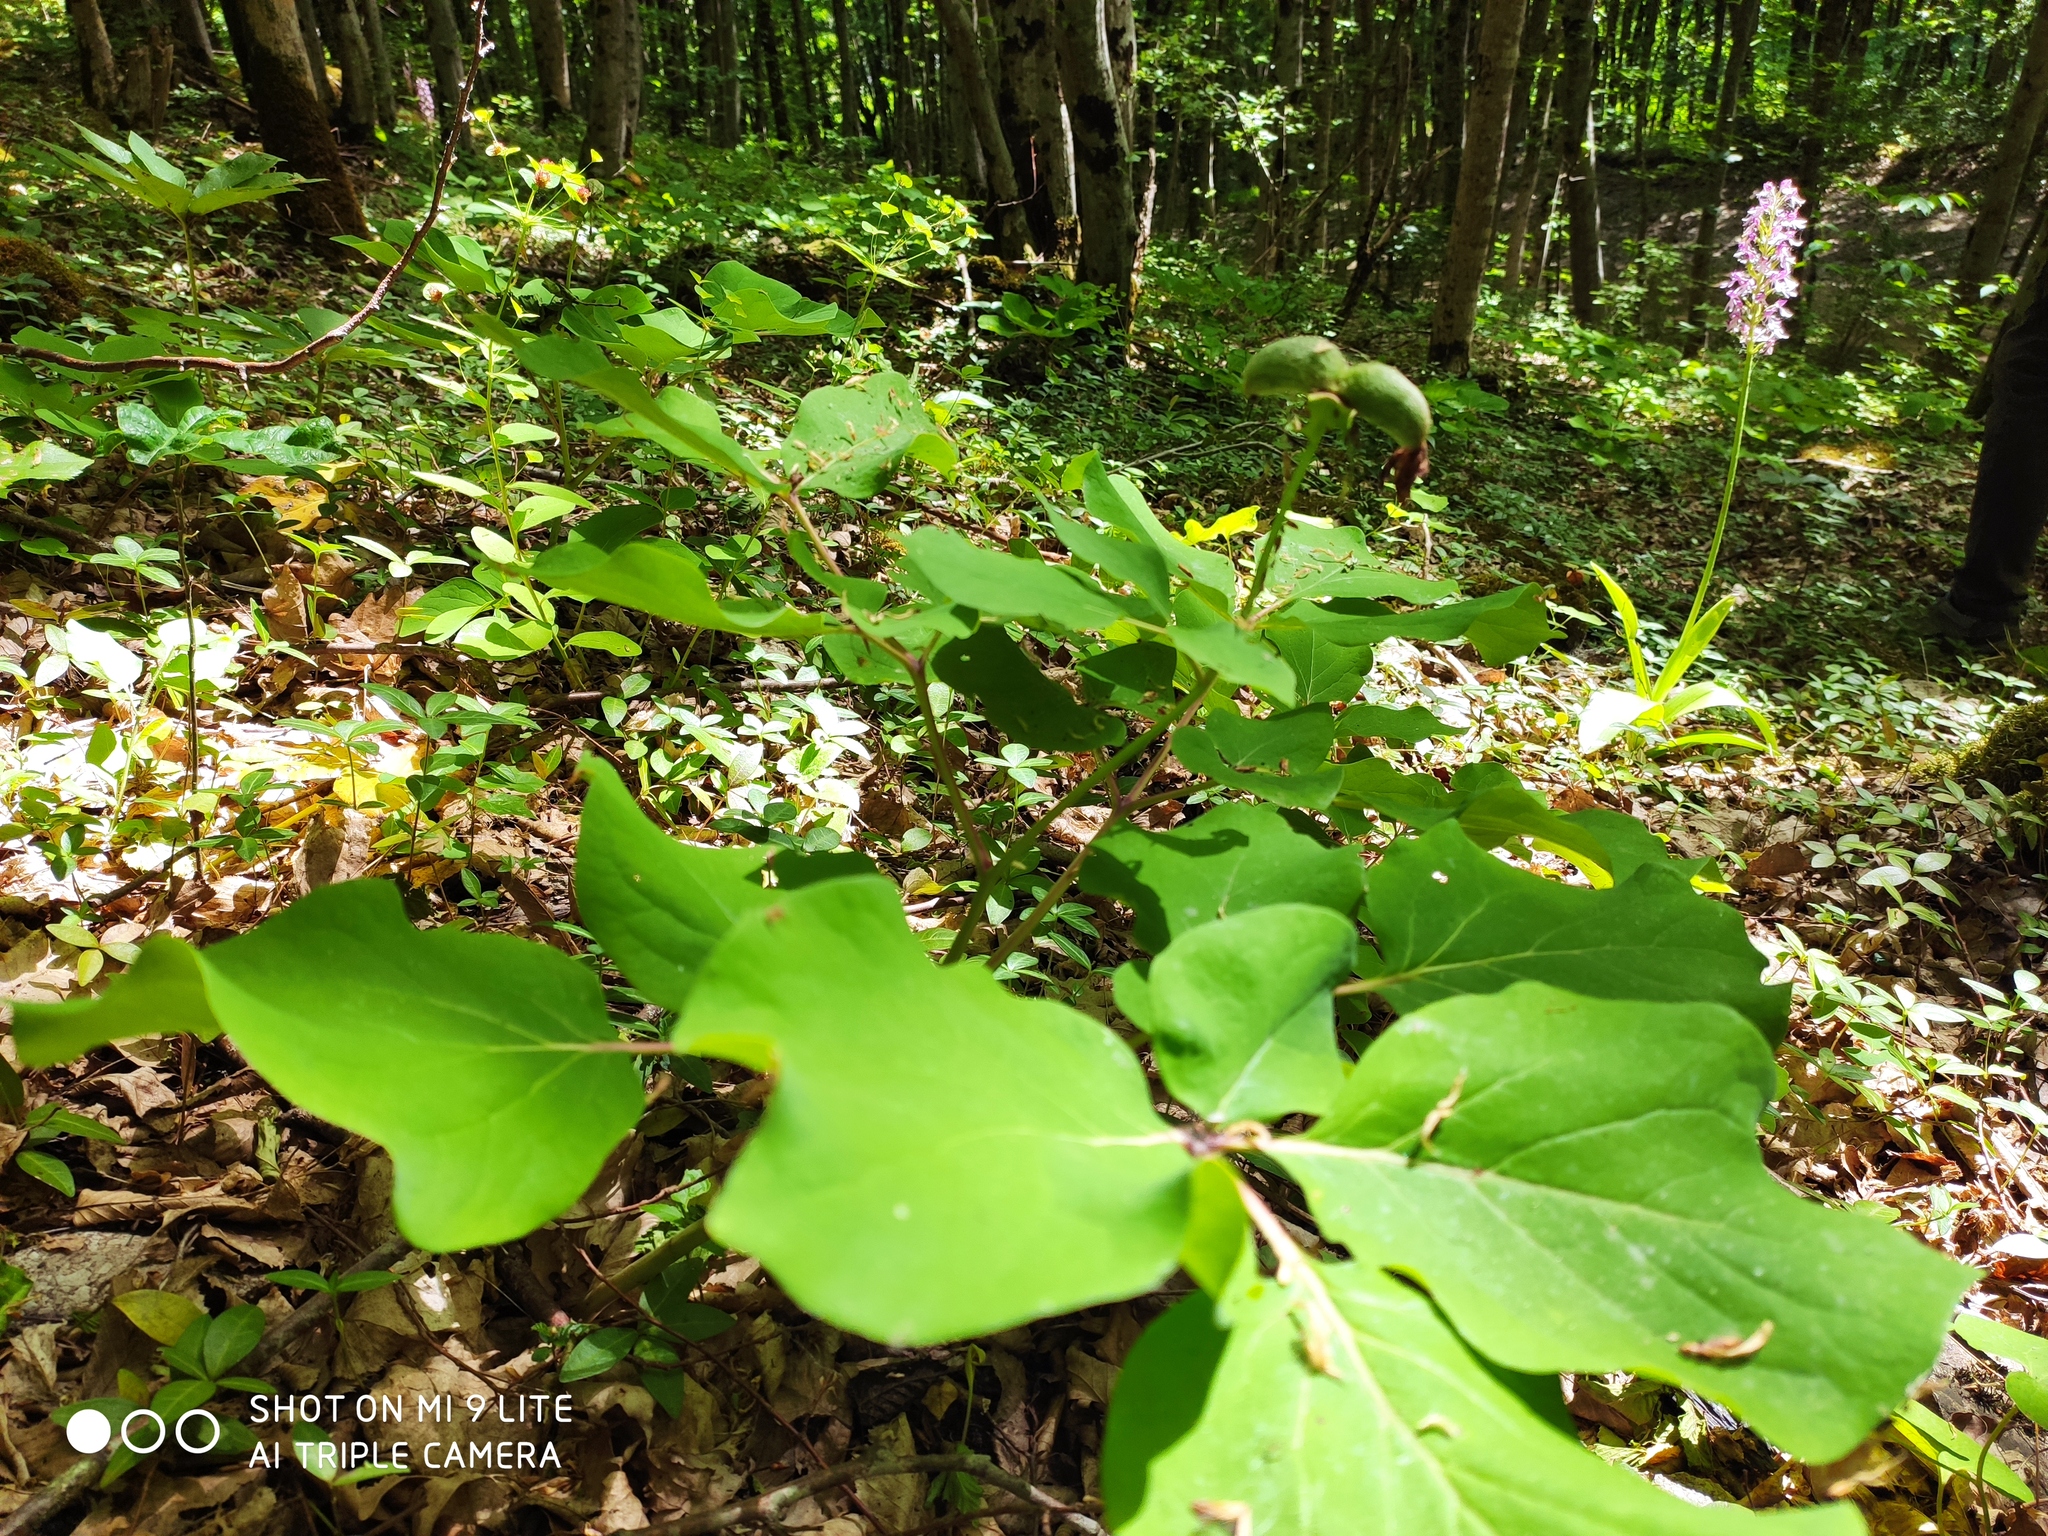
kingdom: Plantae
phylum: Tracheophyta
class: Magnoliopsida
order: Saxifragales
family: Paeoniaceae
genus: Paeonia
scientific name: Paeonia caucasica
